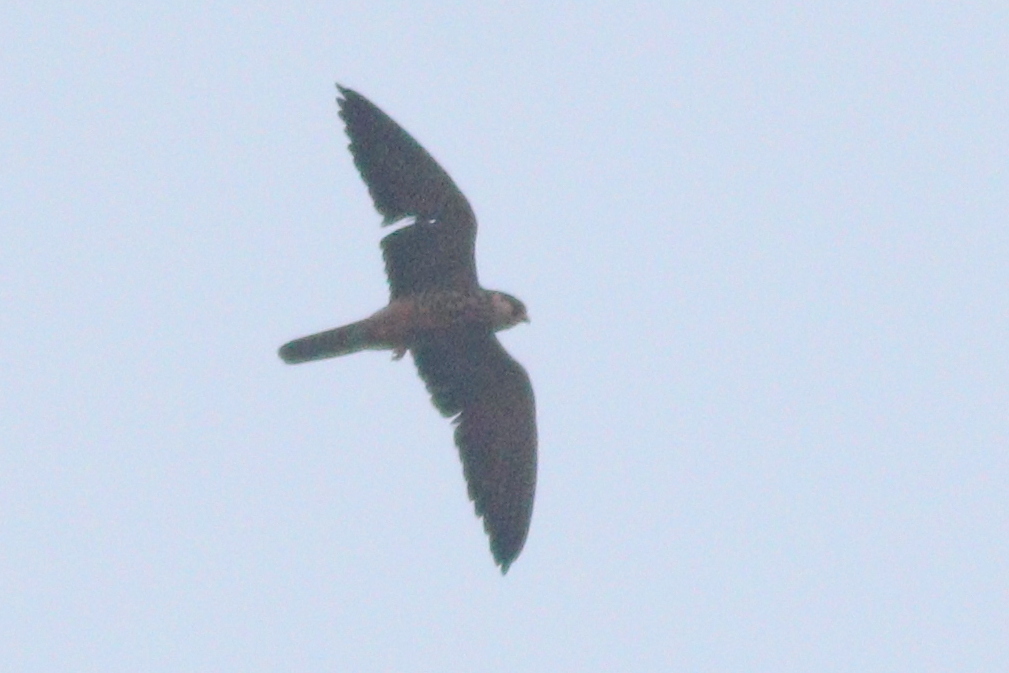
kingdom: Animalia
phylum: Chordata
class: Aves
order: Falconiformes
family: Falconidae
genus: Falco
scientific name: Falco amurensis
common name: Amur falcon
